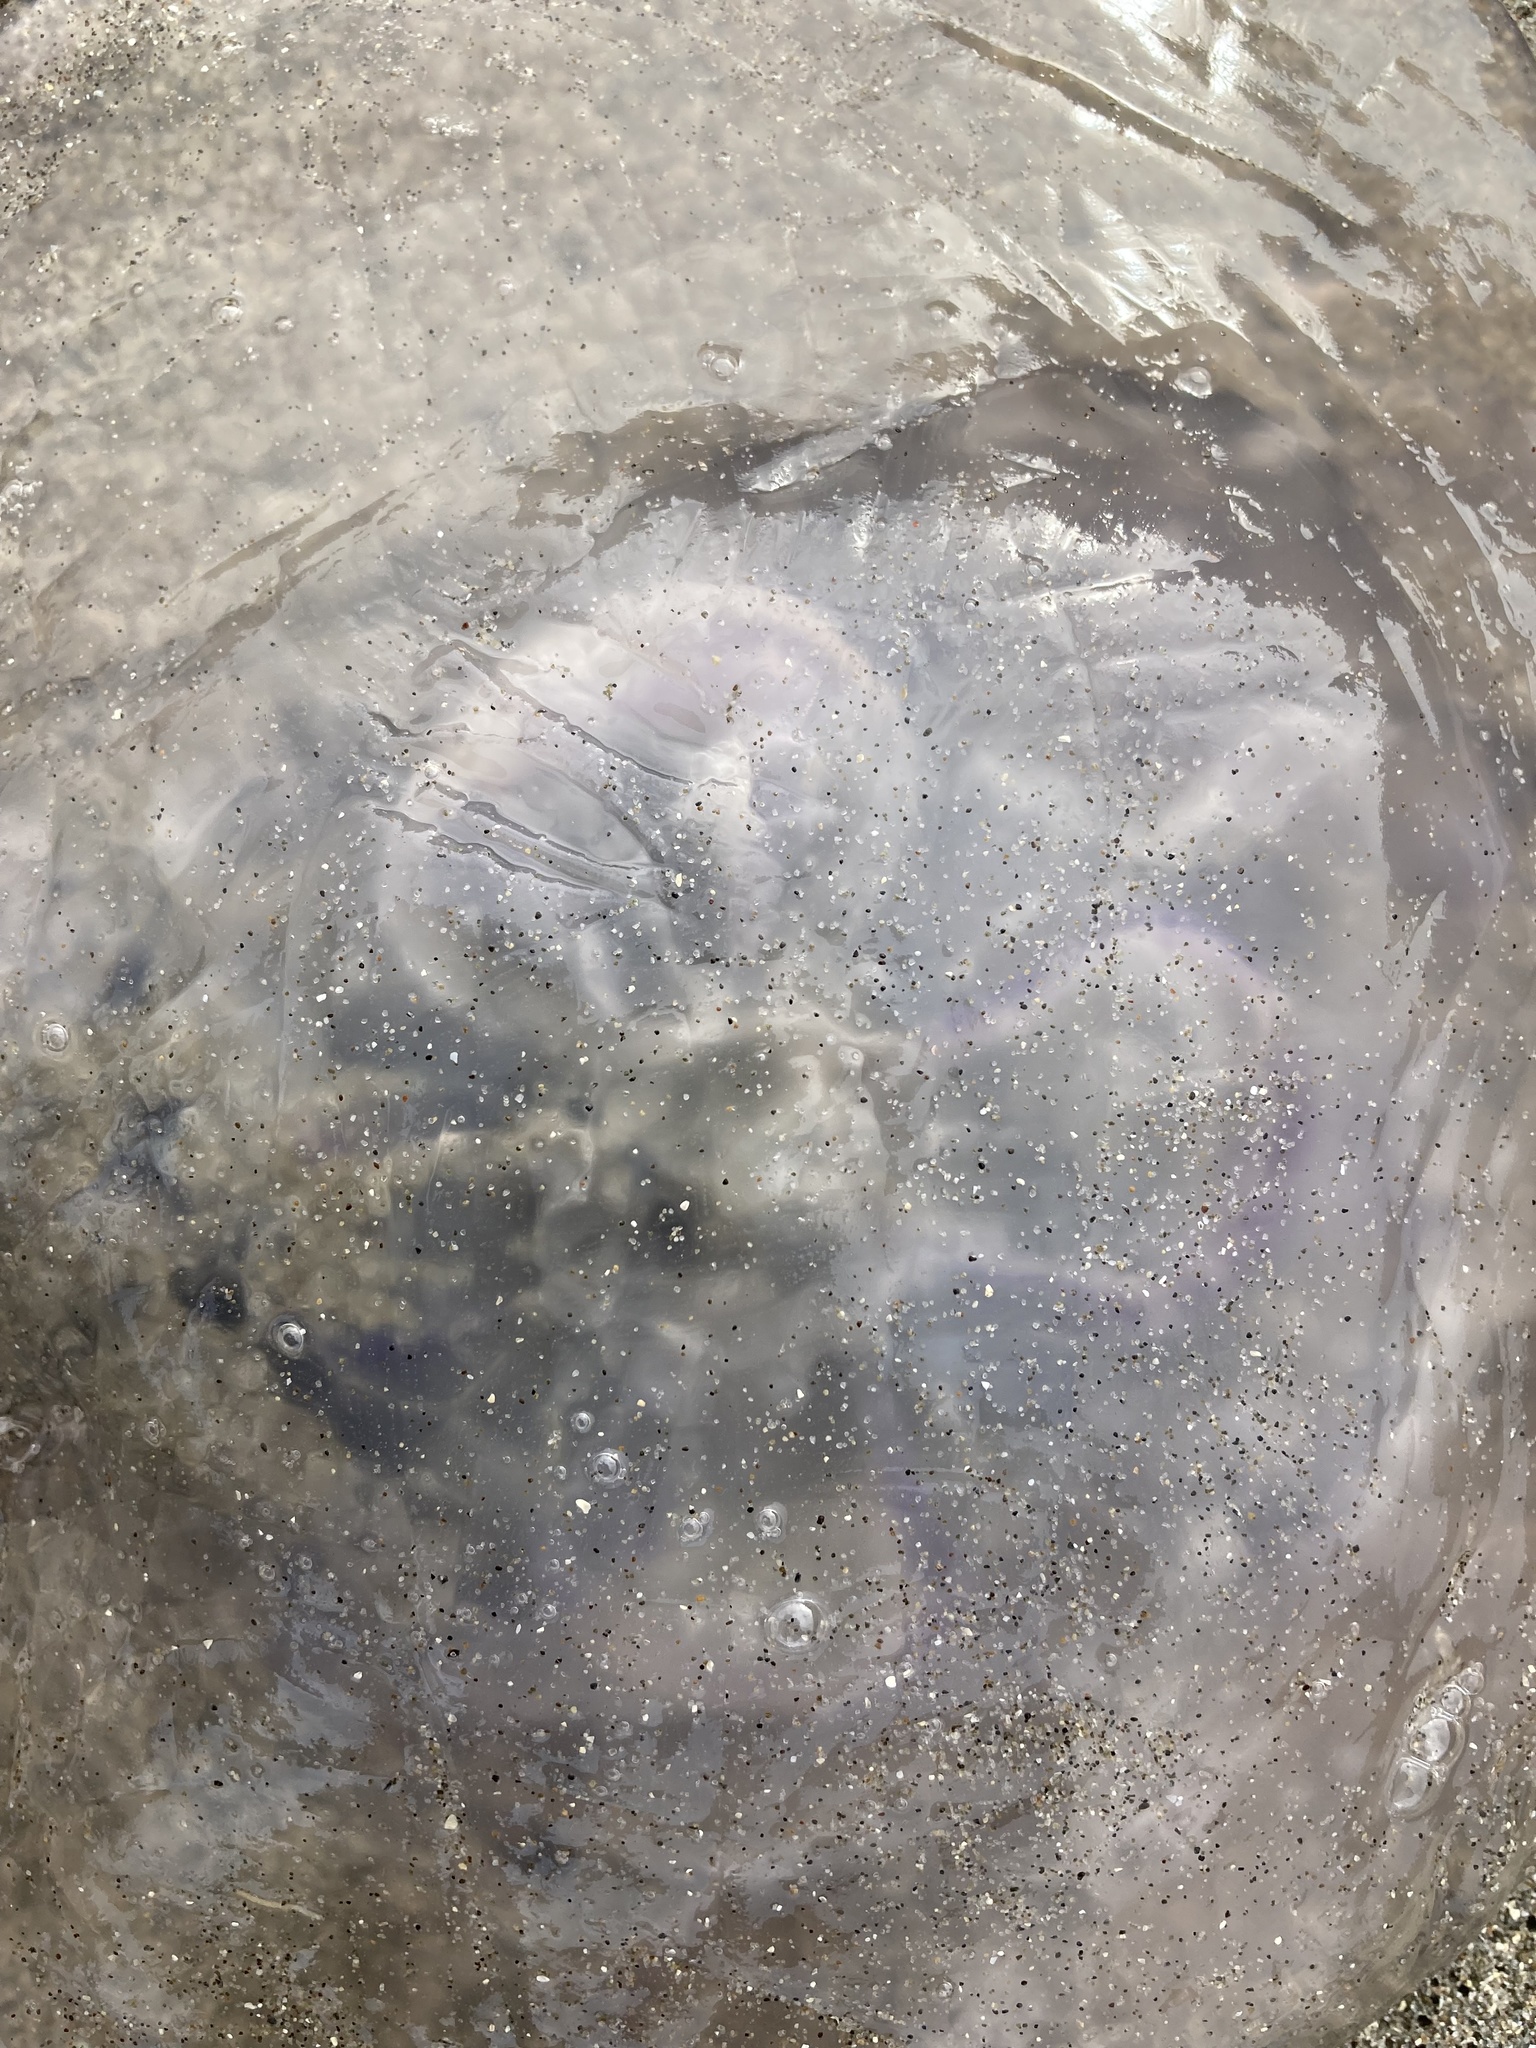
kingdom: Animalia
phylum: Cnidaria
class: Scyphozoa
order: Semaeostomeae
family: Ulmaridae
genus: Aurelia
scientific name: Aurelia labiata
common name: Pacific moon jelly
